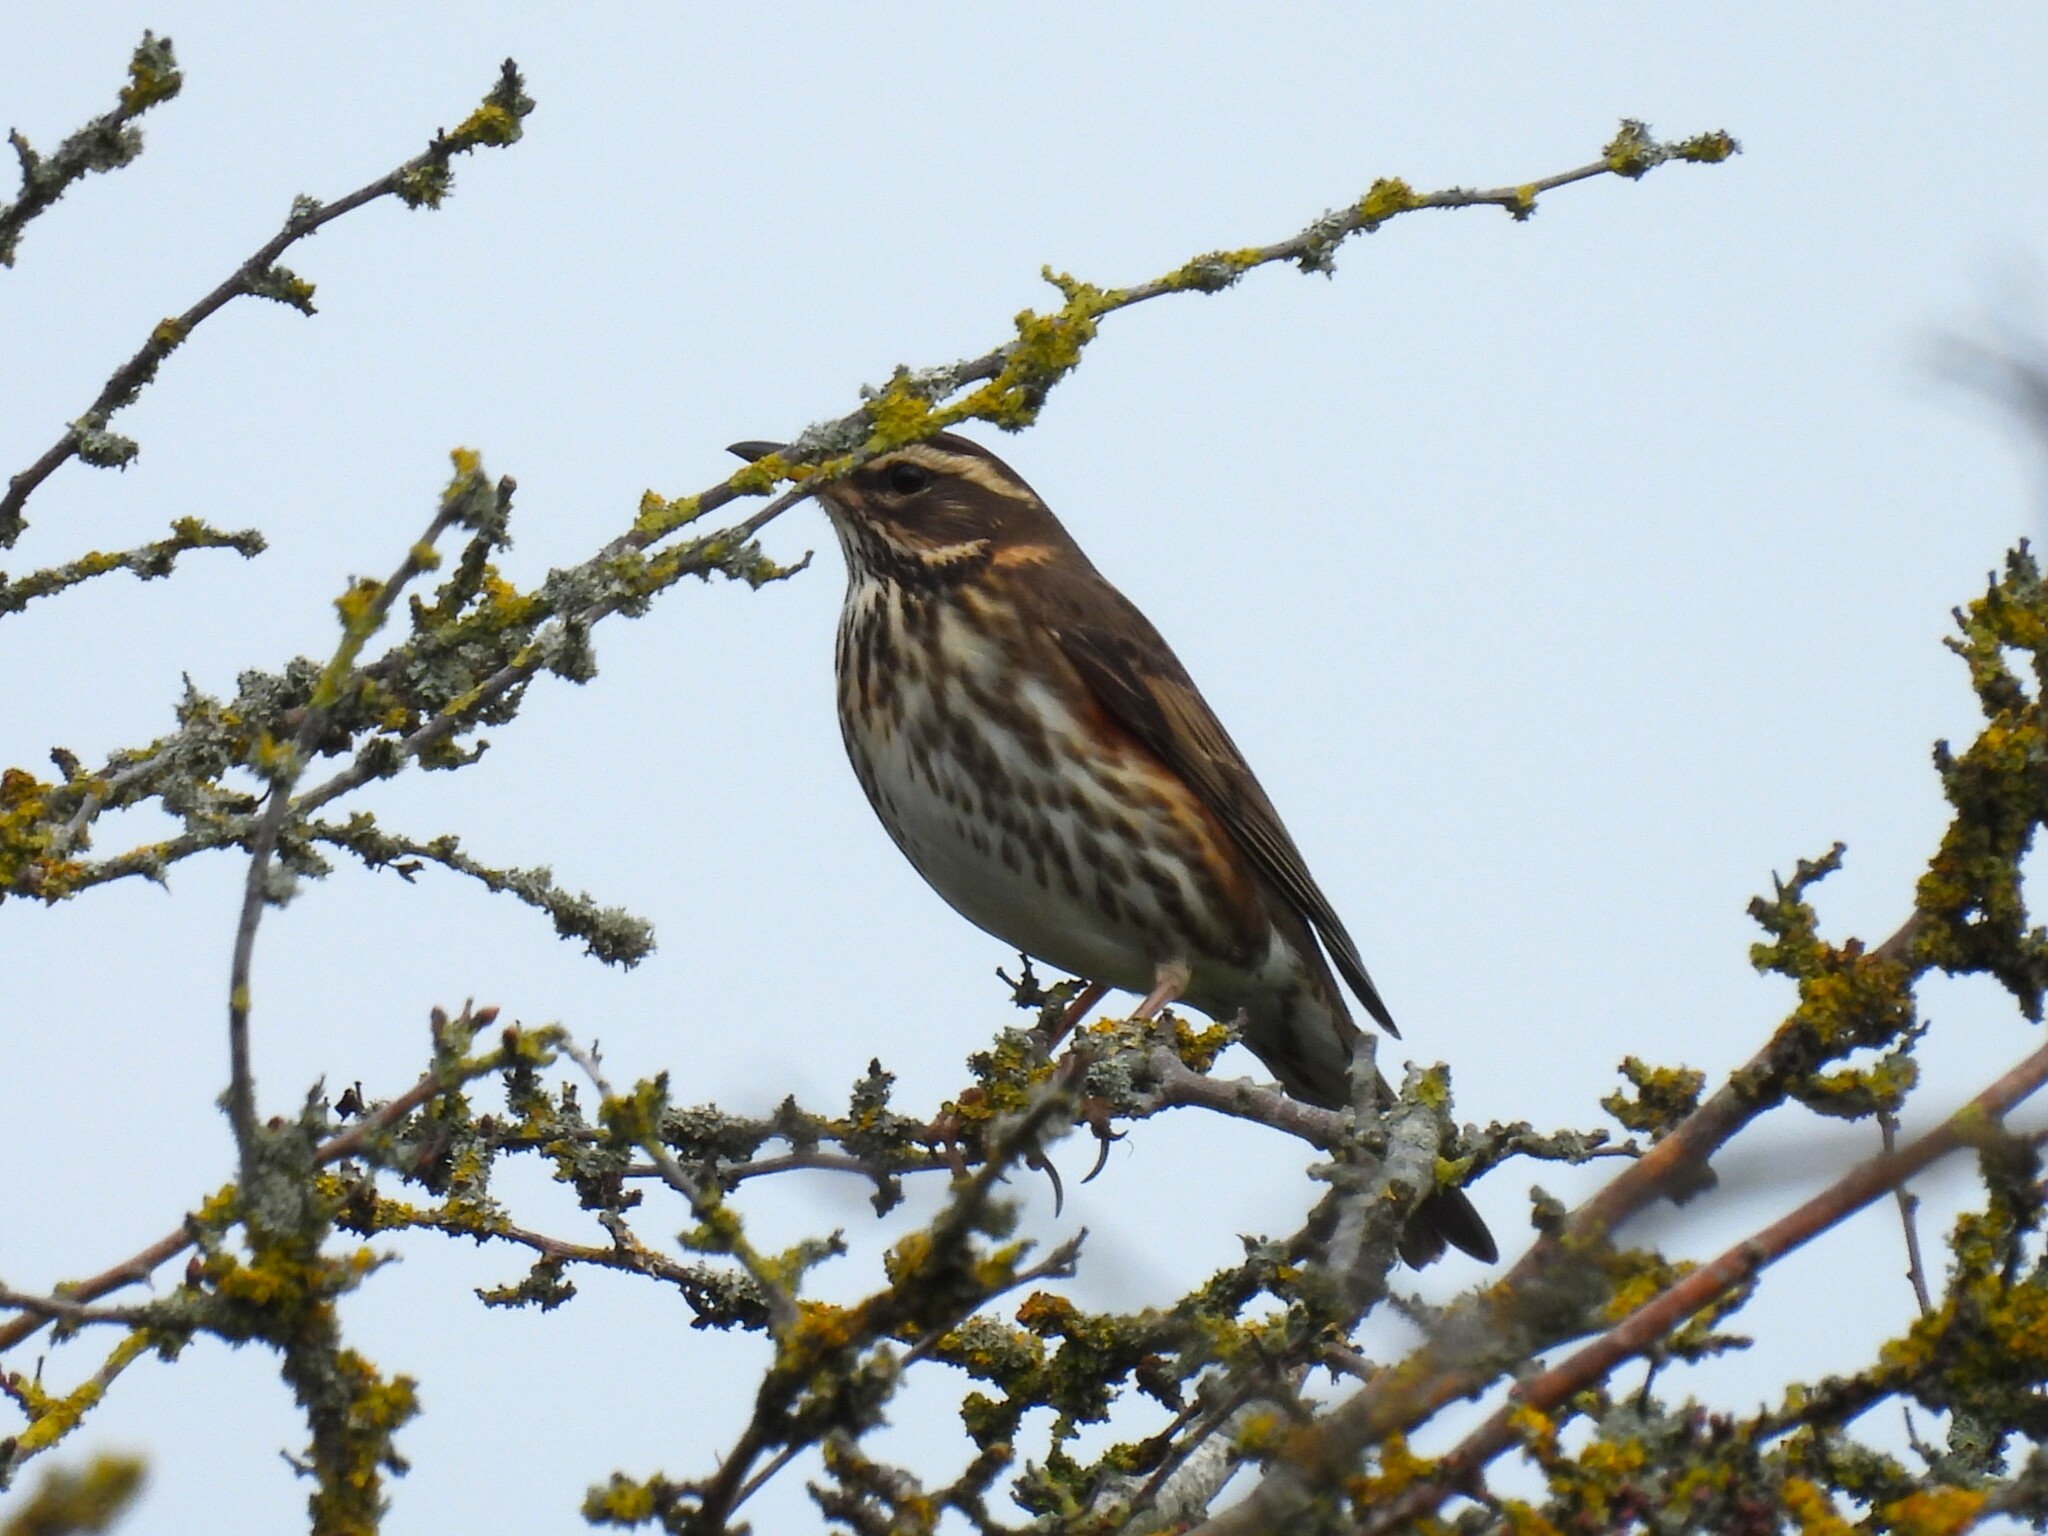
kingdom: Animalia
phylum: Chordata
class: Aves
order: Passeriformes
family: Turdidae
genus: Turdus
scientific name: Turdus iliacus
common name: Redwing
